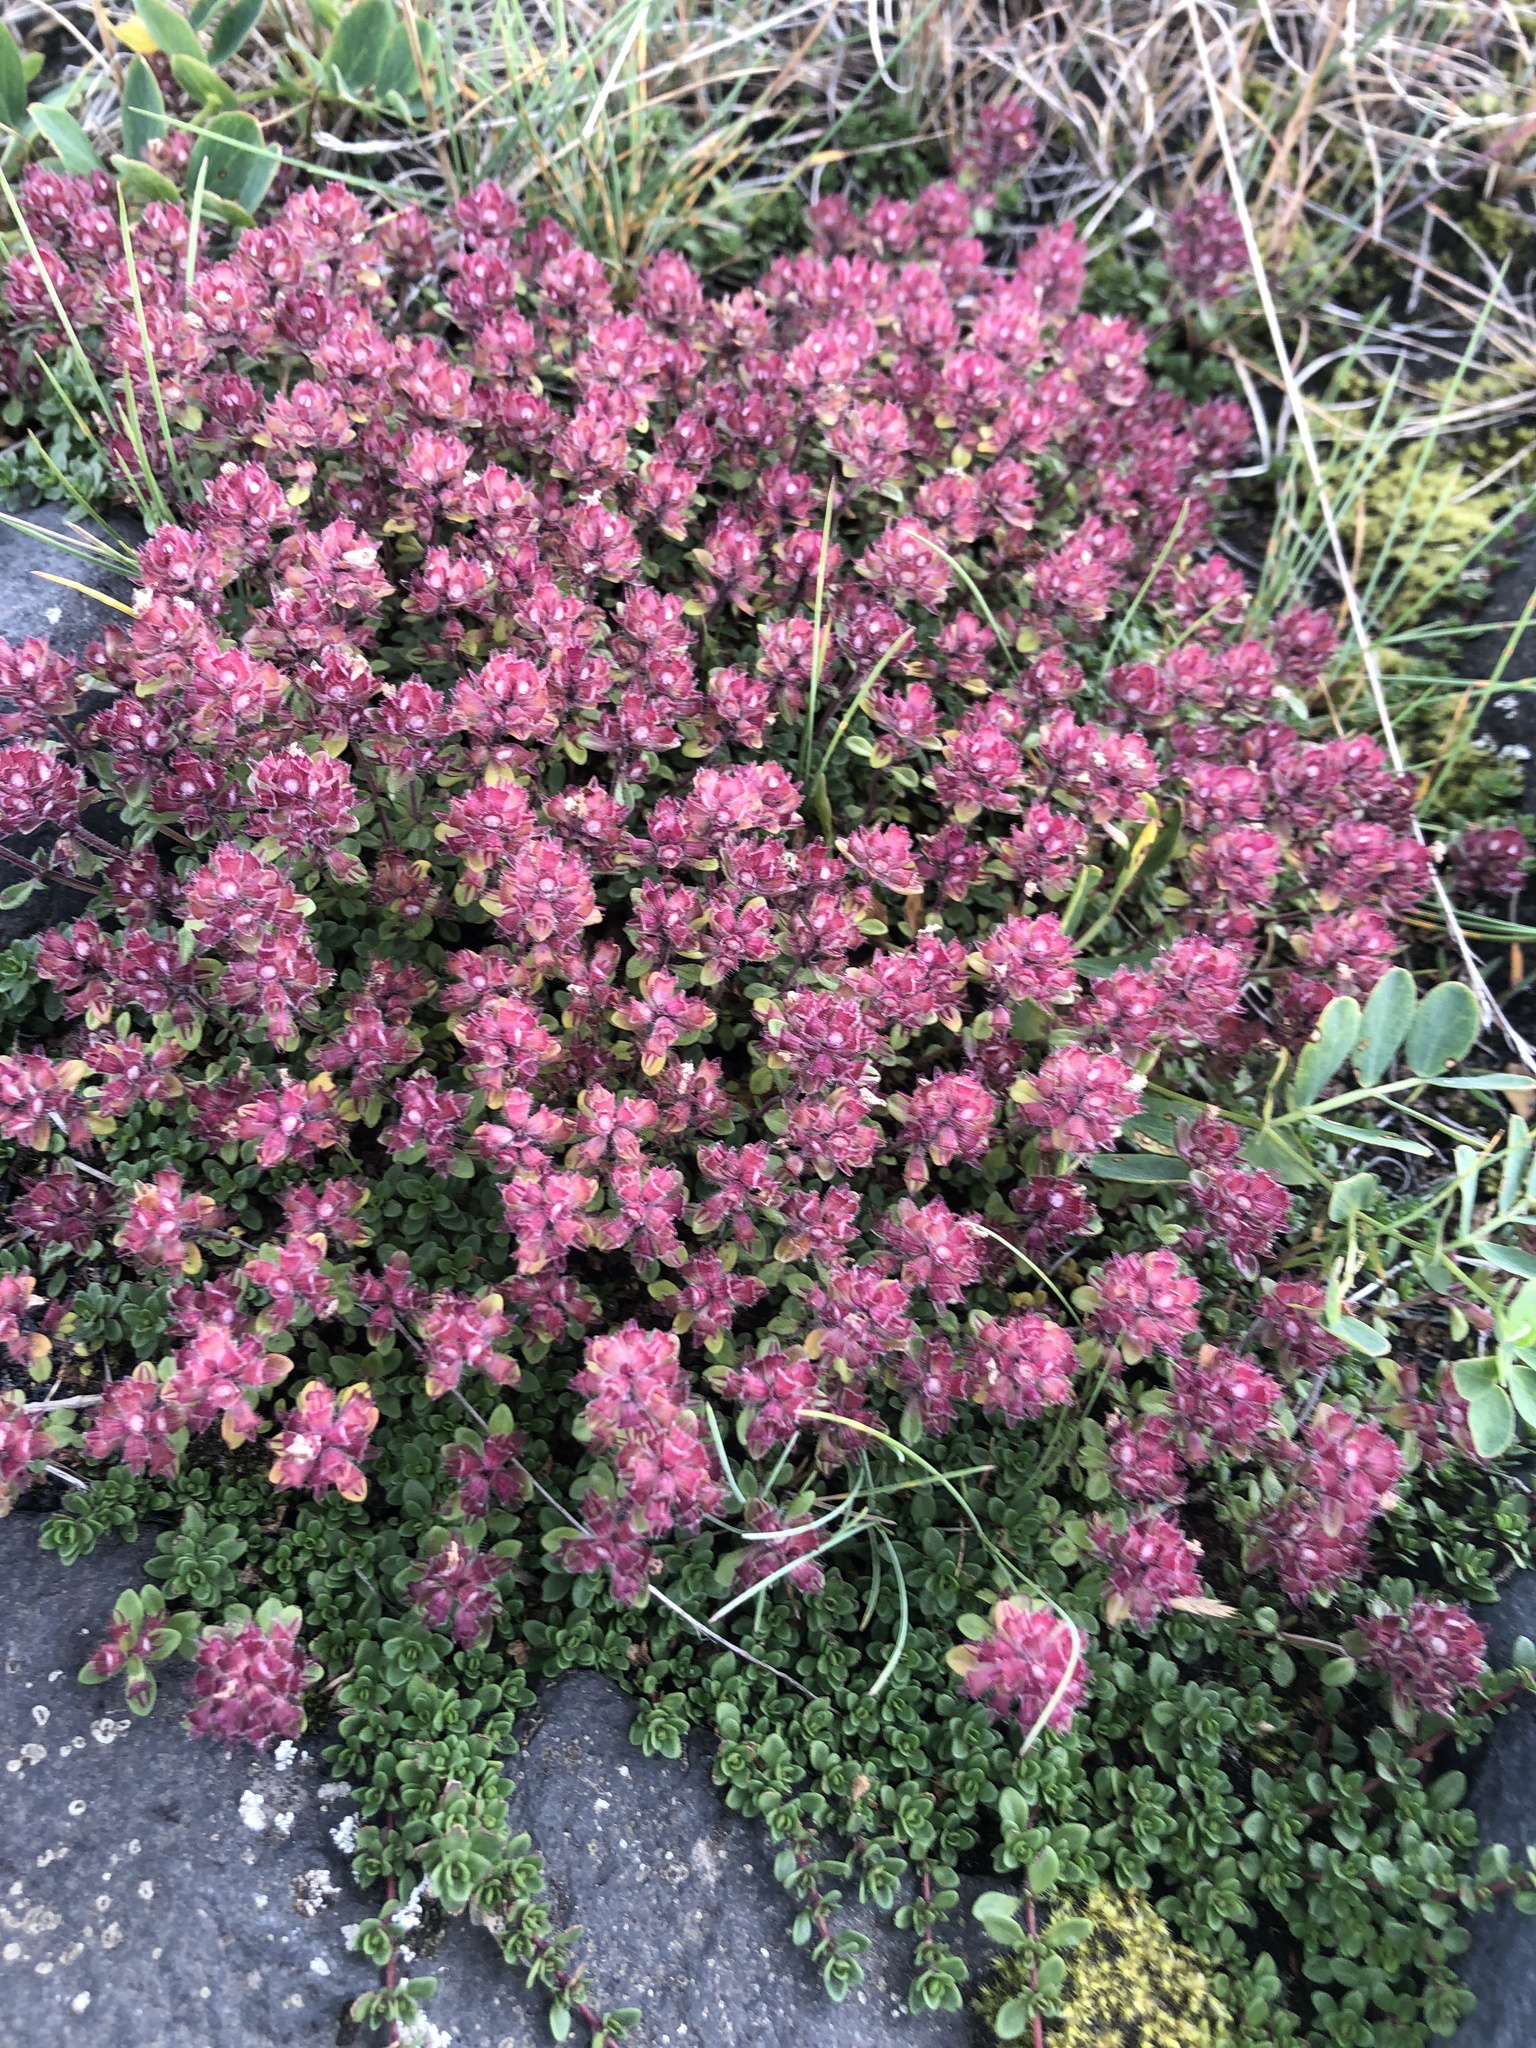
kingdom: Plantae
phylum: Tracheophyta
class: Magnoliopsida
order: Lamiales
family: Lamiaceae
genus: Thymus
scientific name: Thymus praecox
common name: Wild thyme
